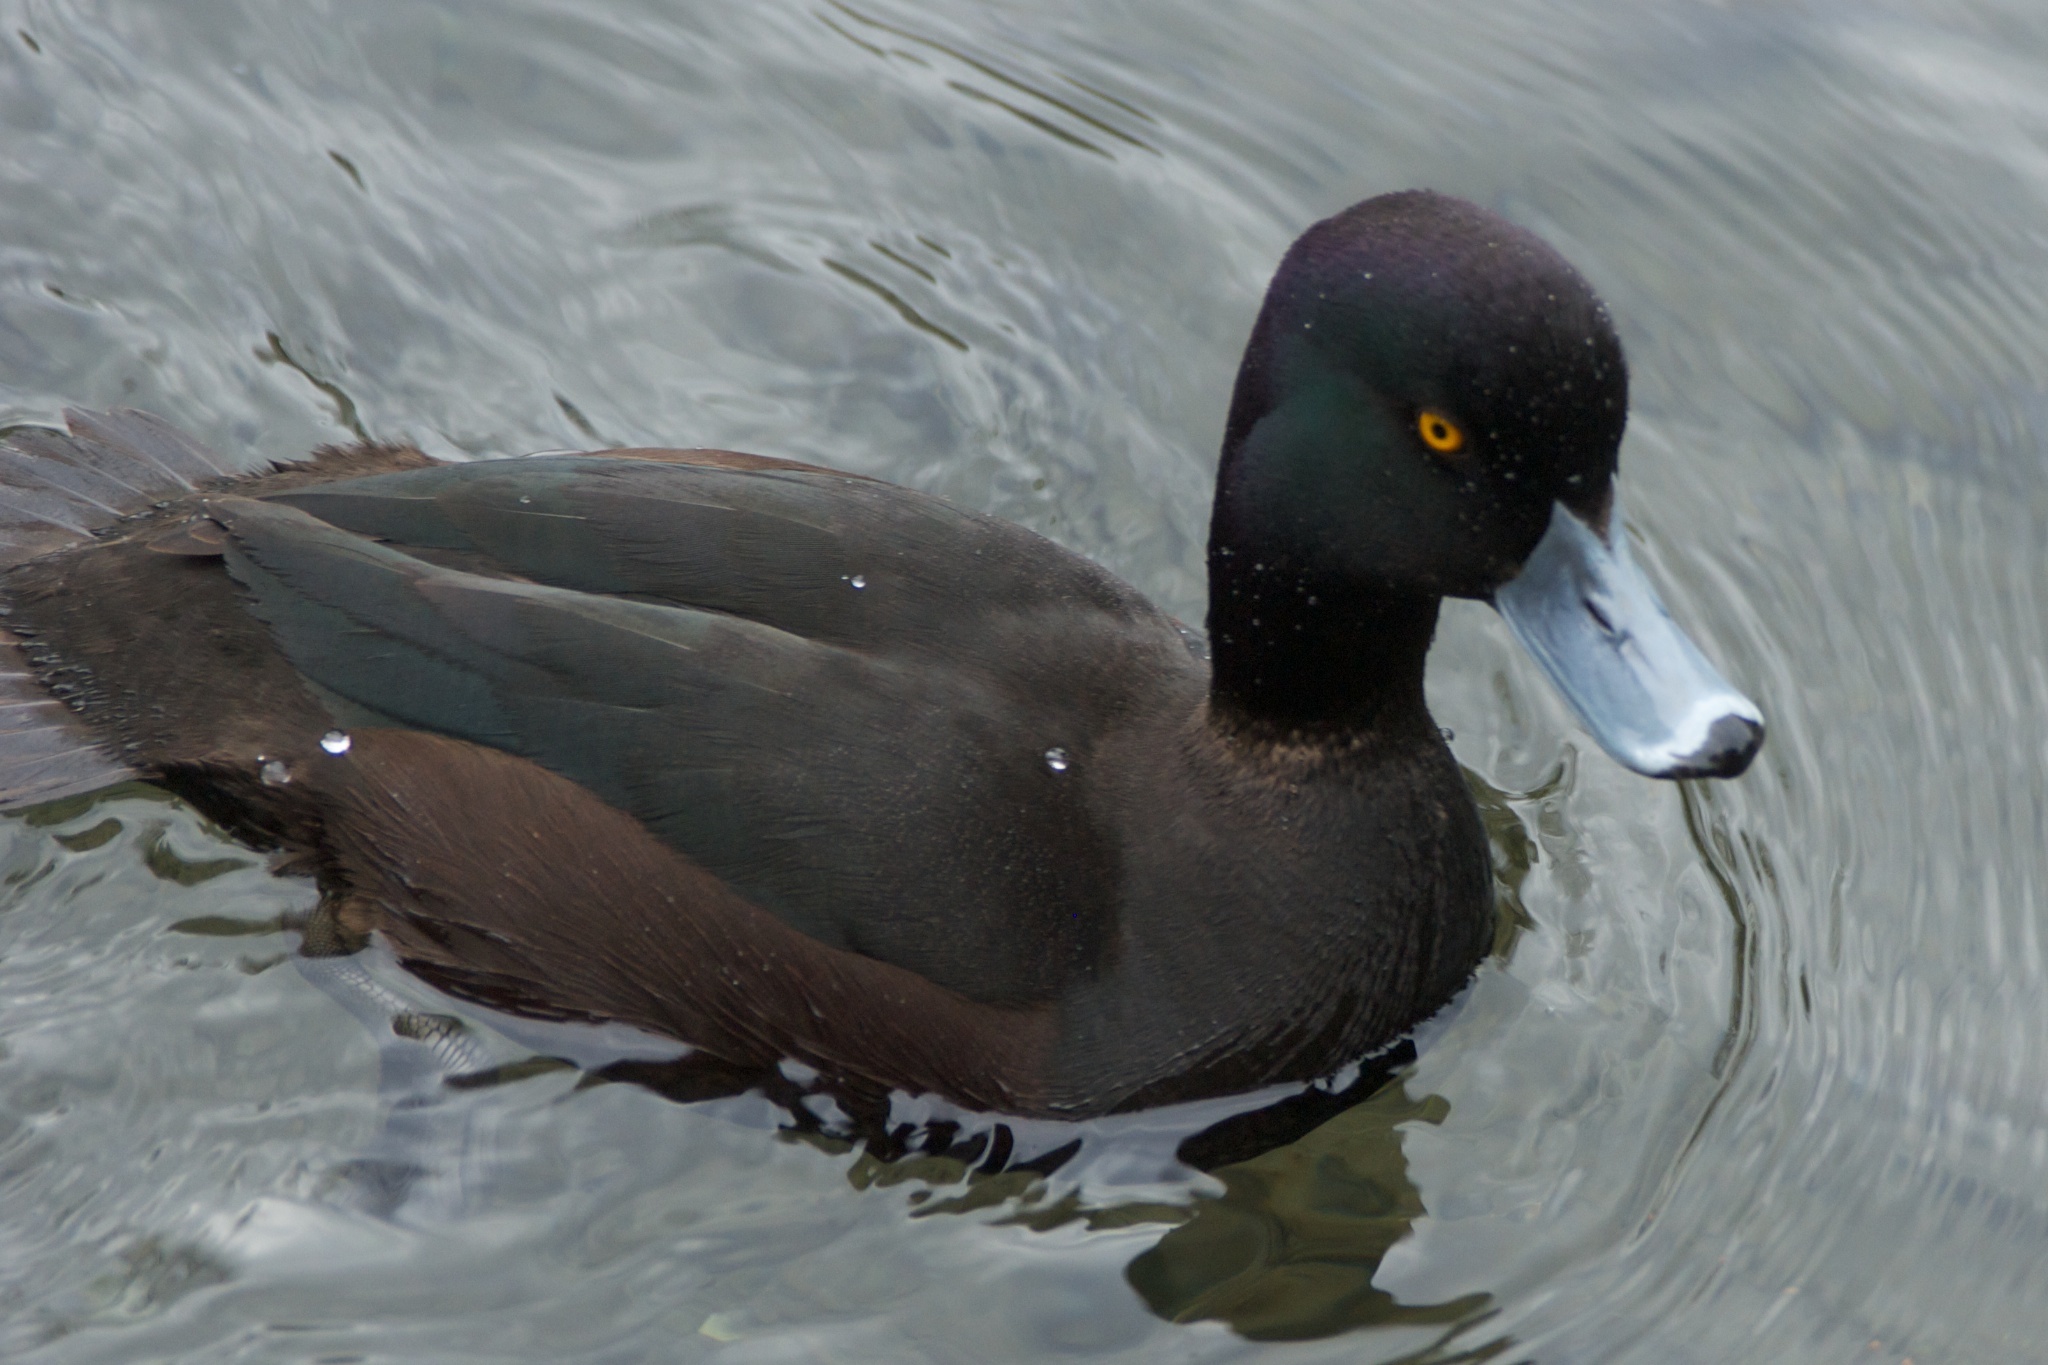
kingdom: Animalia
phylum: Chordata
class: Aves
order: Anseriformes
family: Anatidae
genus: Aythya
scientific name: Aythya novaeseelandiae
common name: New zealand scaup
